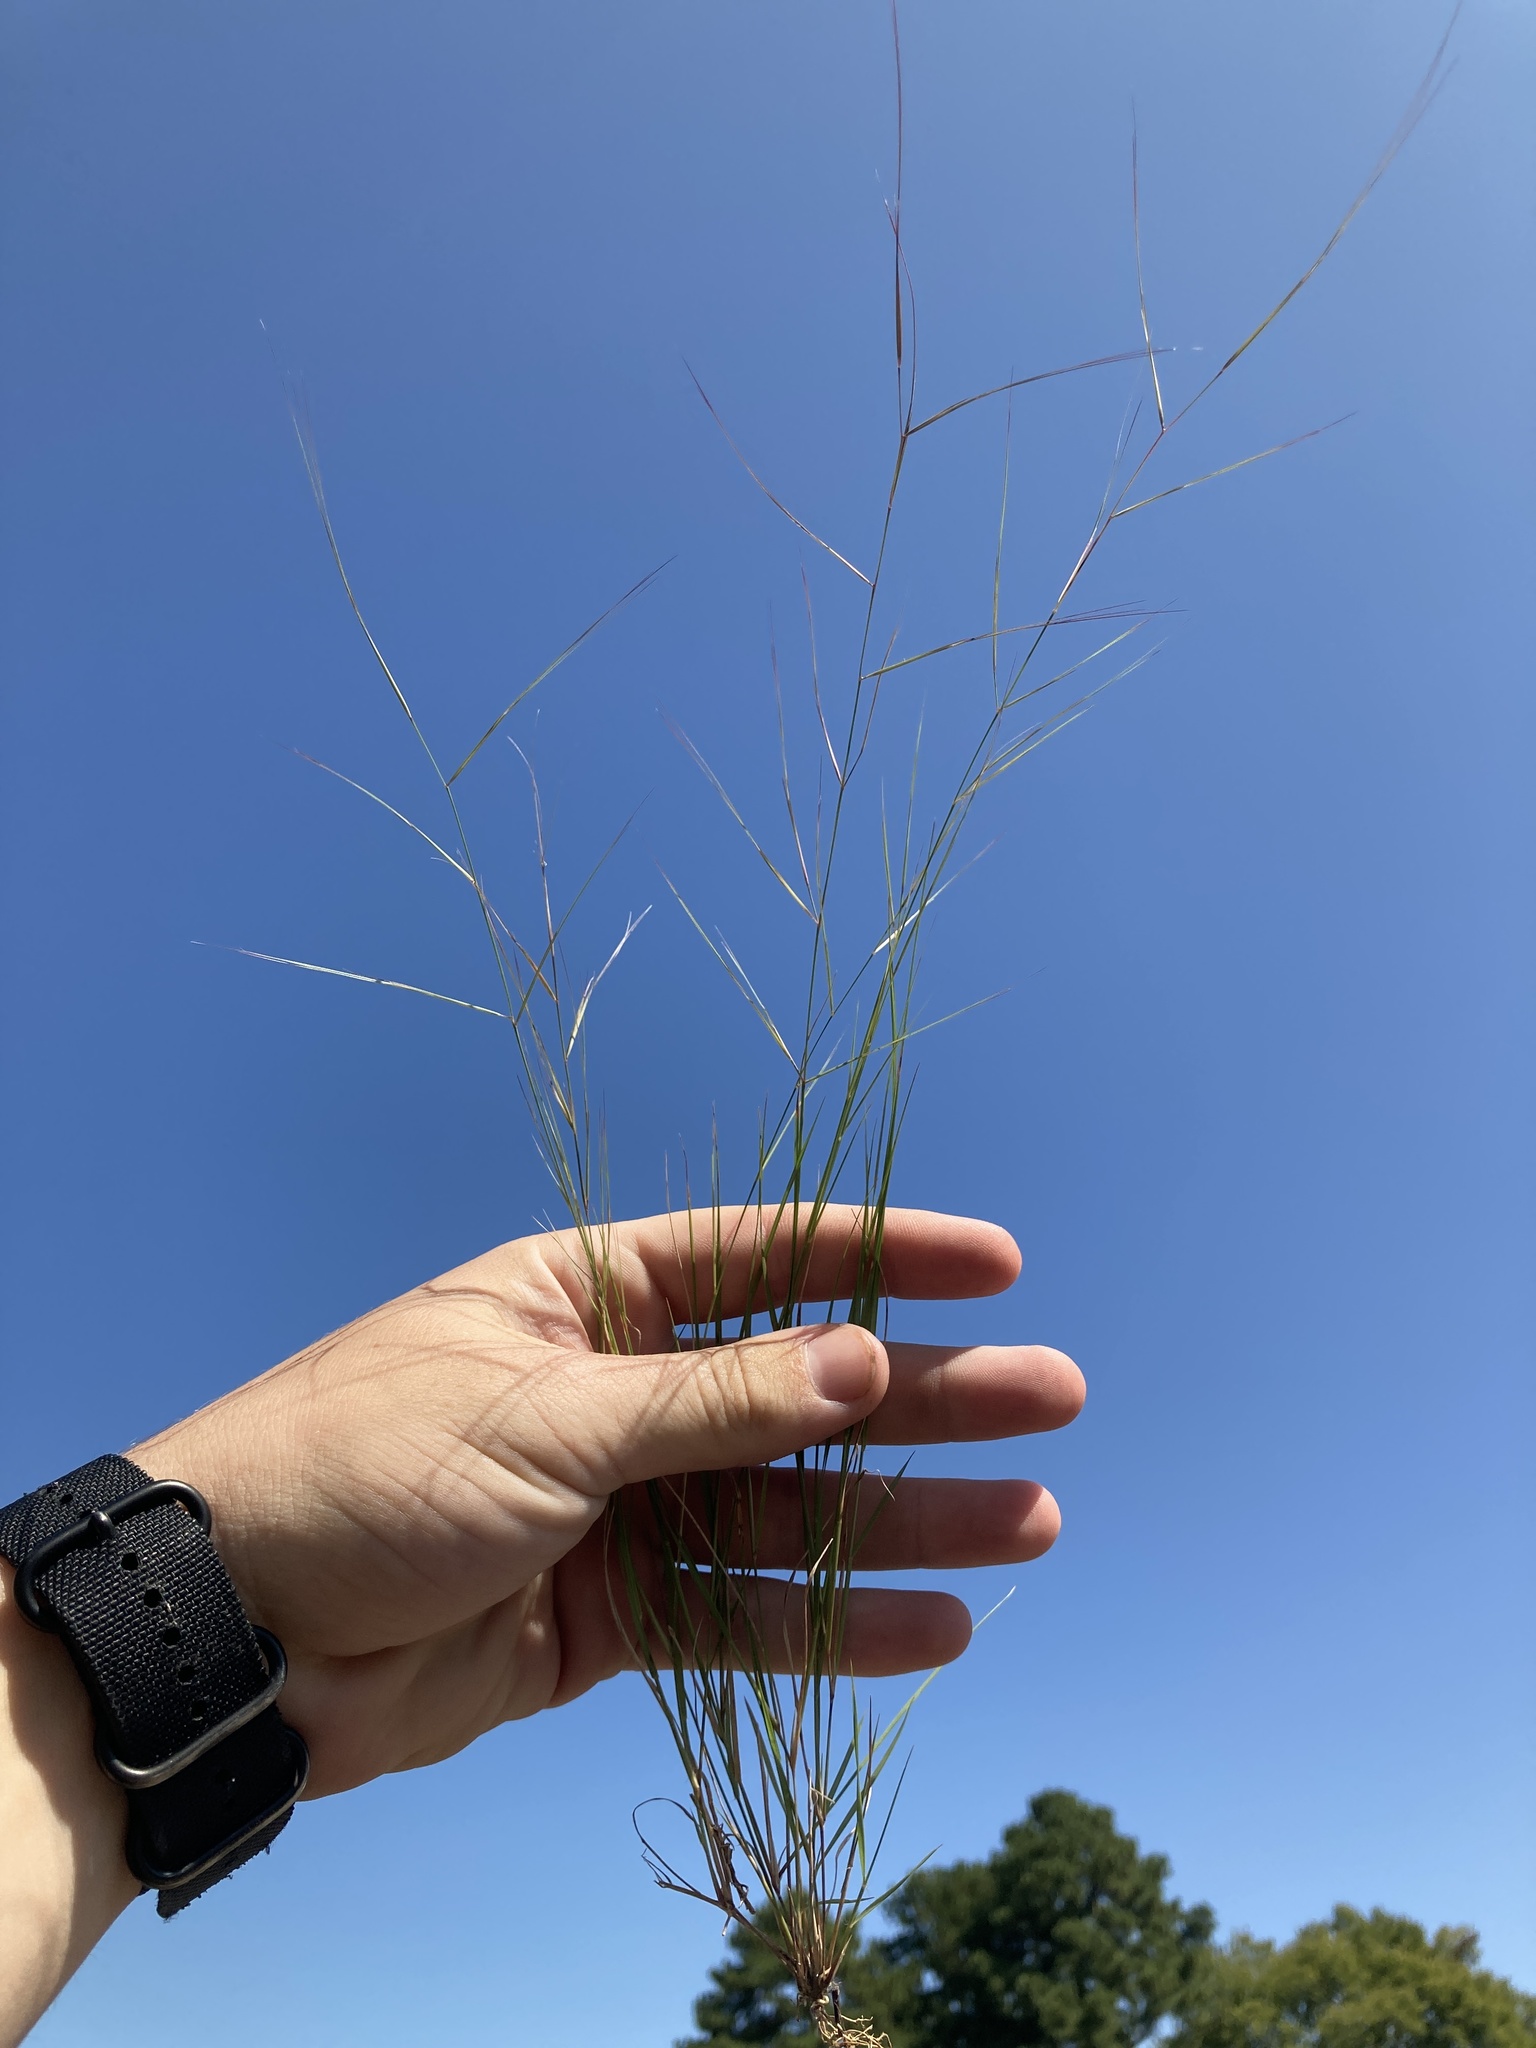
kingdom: Plantae
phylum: Tracheophyta
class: Liliopsida
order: Poales
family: Poaceae
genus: Aristida
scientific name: Aristida oligantha
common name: Few-flowered aristida
